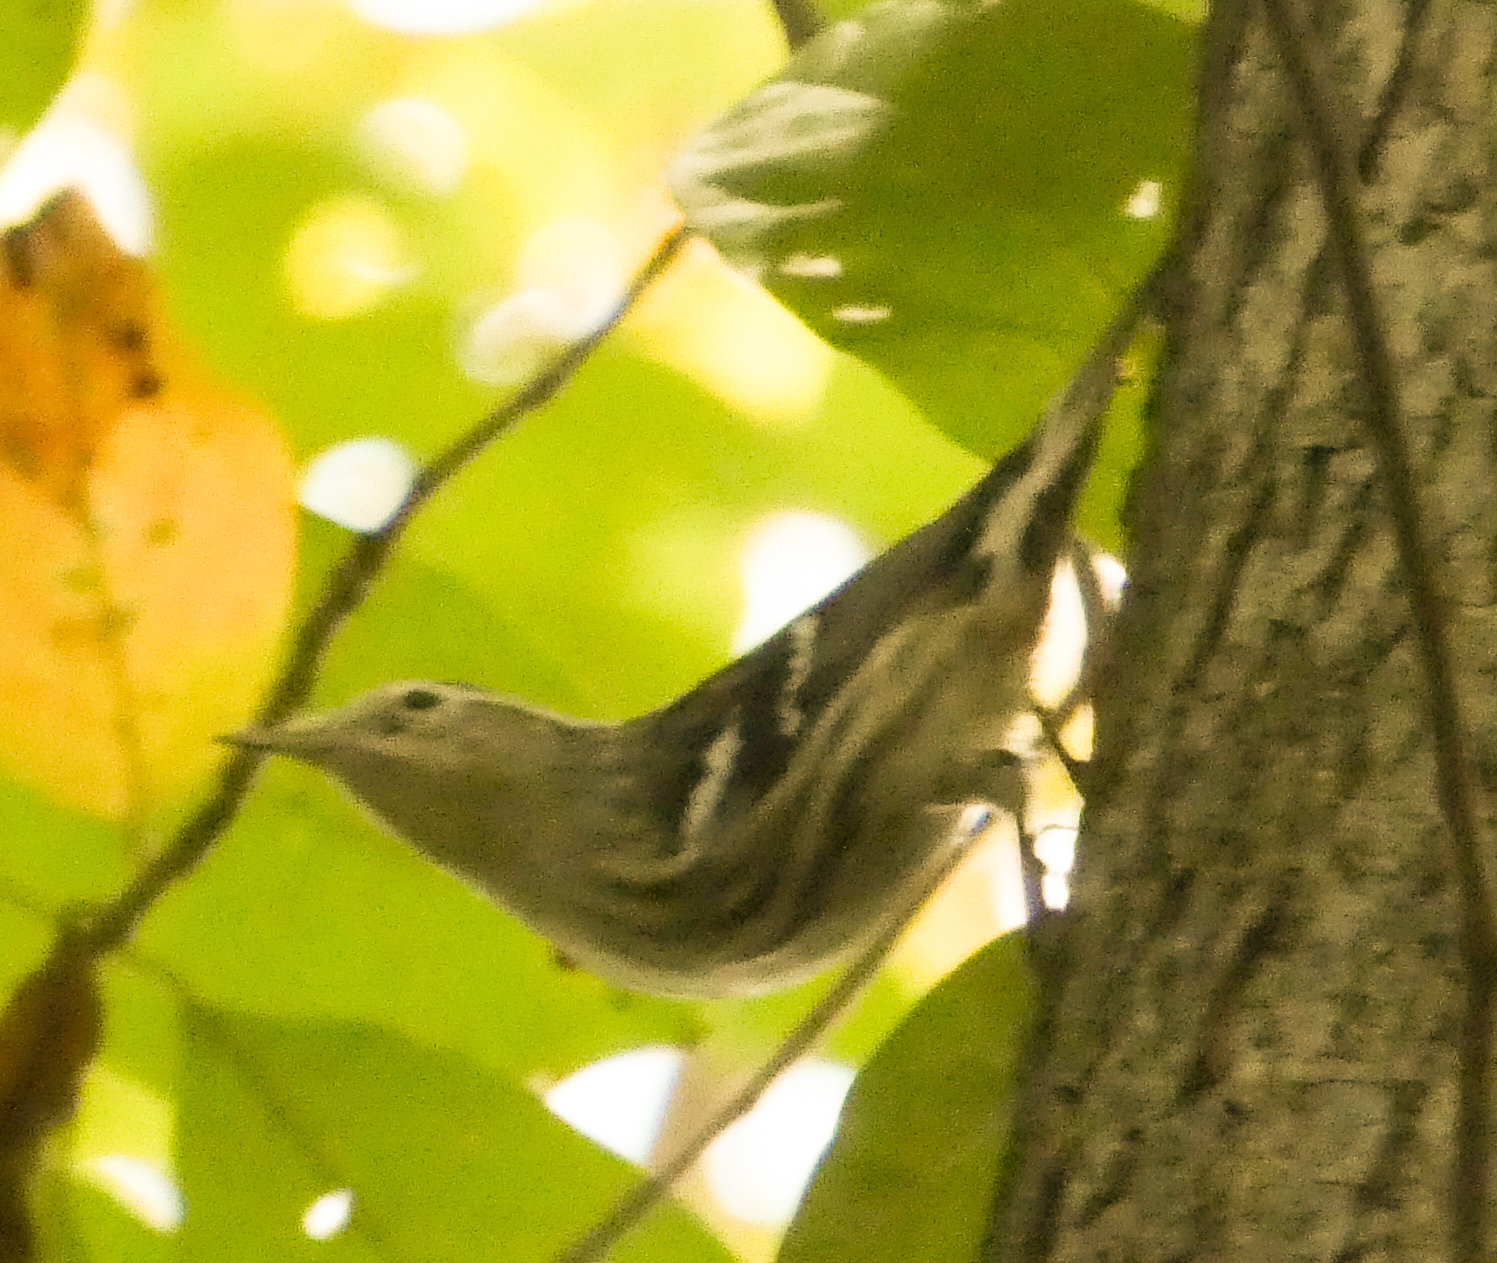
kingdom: Animalia
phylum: Chordata
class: Aves
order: Passeriformes
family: Parulidae
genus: Mniotilta
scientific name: Mniotilta varia
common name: Black-and-white warbler
